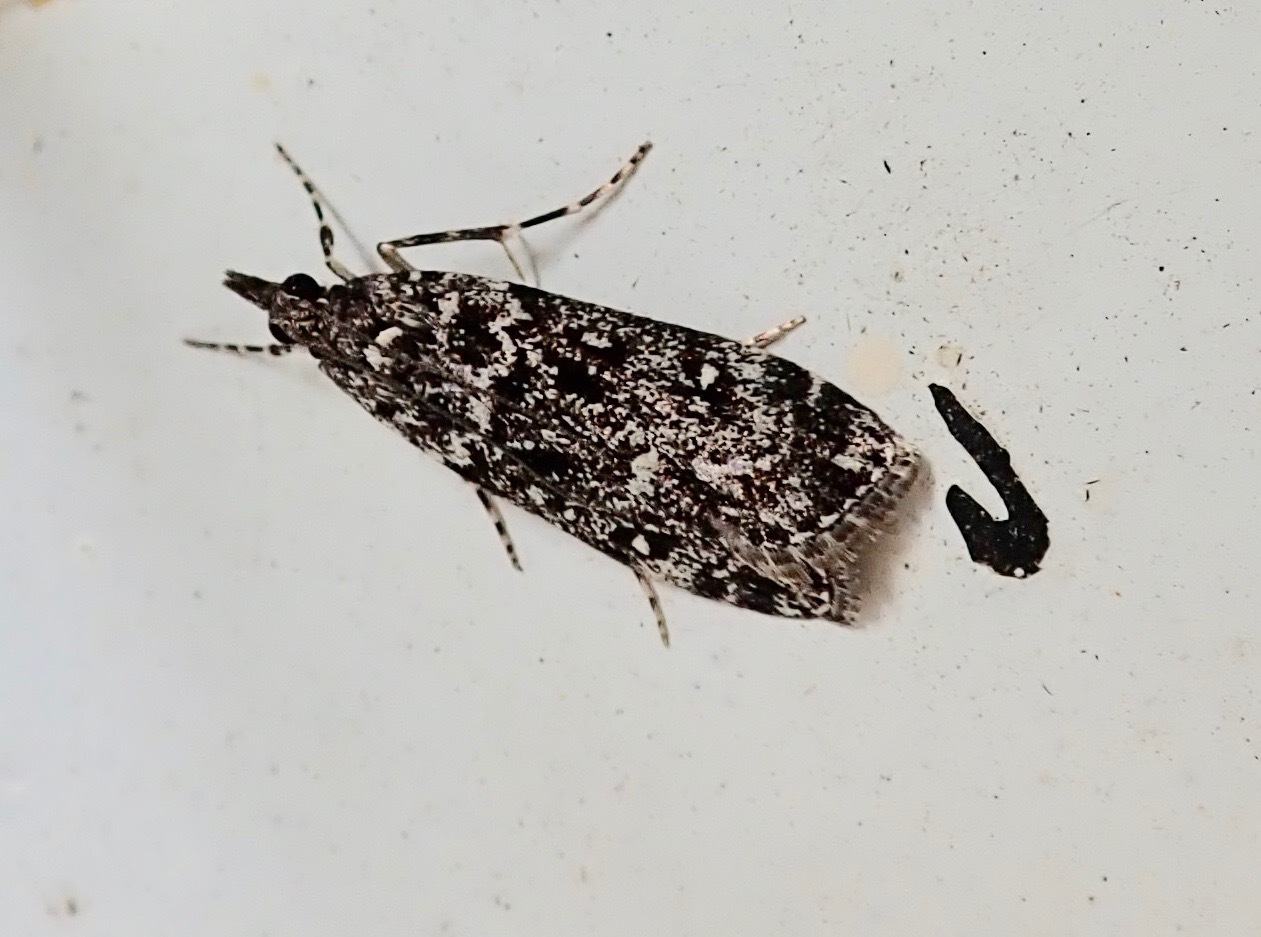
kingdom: Animalia
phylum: Arthropoda
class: Insecta
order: Lepidoptera
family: Crambidae
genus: Eudonia
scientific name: Eudonia philerga
